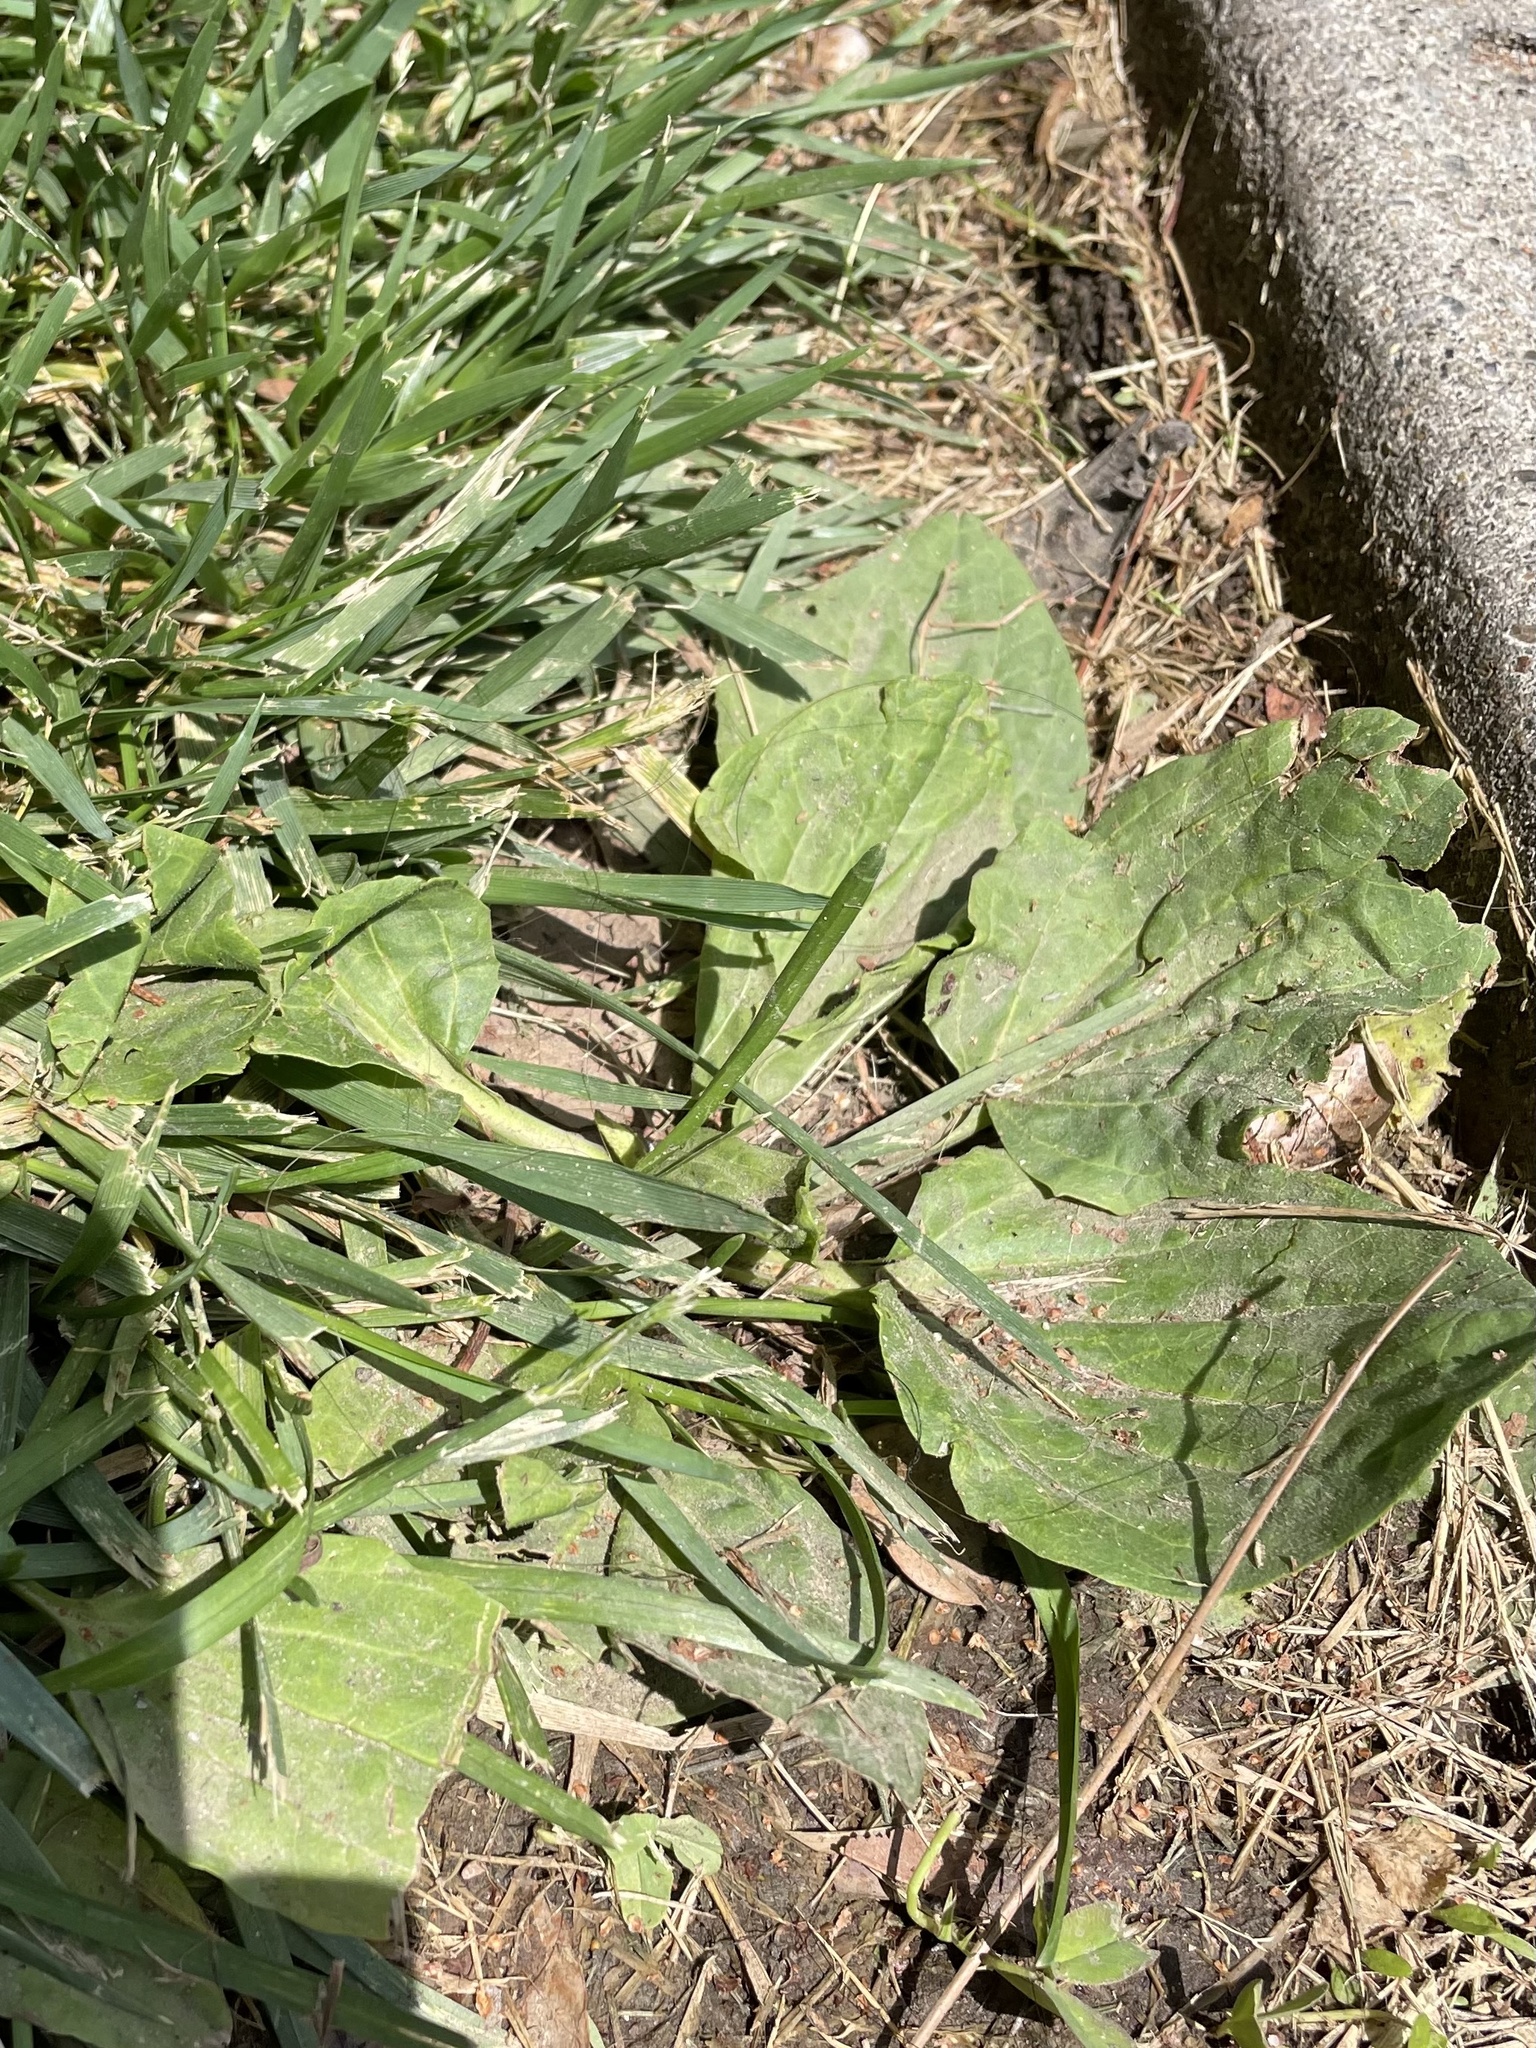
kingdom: Plantae
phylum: Tracheophyta
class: Magnoliopsida
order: Lamiales
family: Plantaginaceae
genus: Plantago
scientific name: Plantago major
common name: Common plantain
